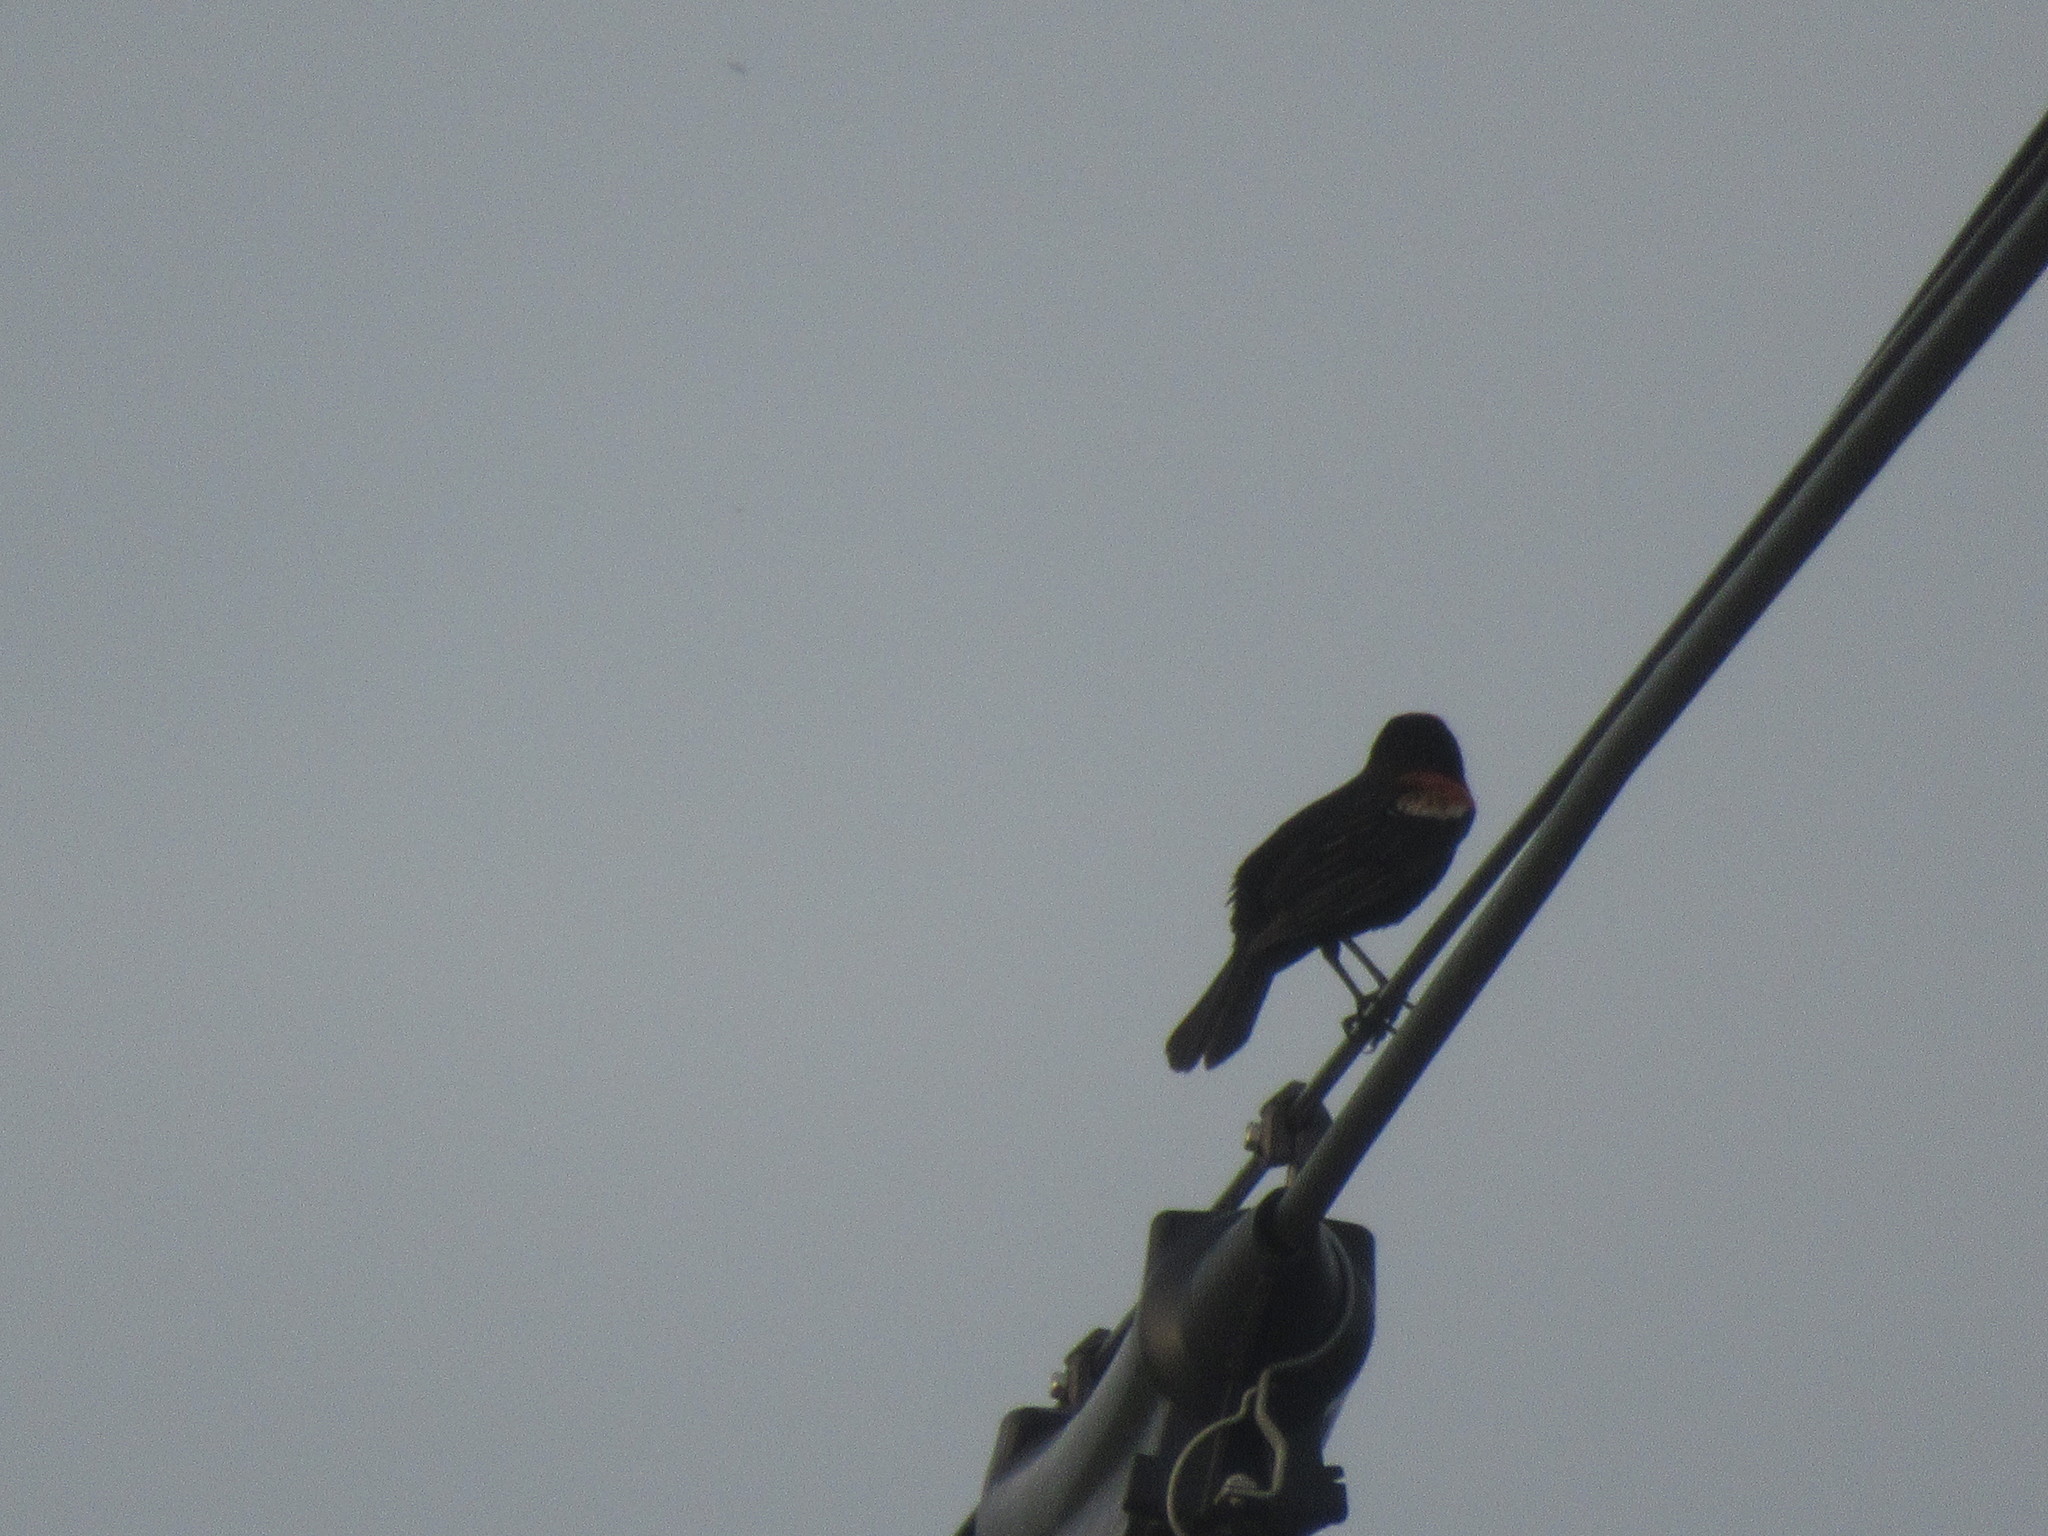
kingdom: Animalia
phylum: Chordata
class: Aves
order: Passeriformes
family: Icteridae
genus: Agelaius
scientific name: Agelaius phoeniceus
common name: Red-winged blackbird
